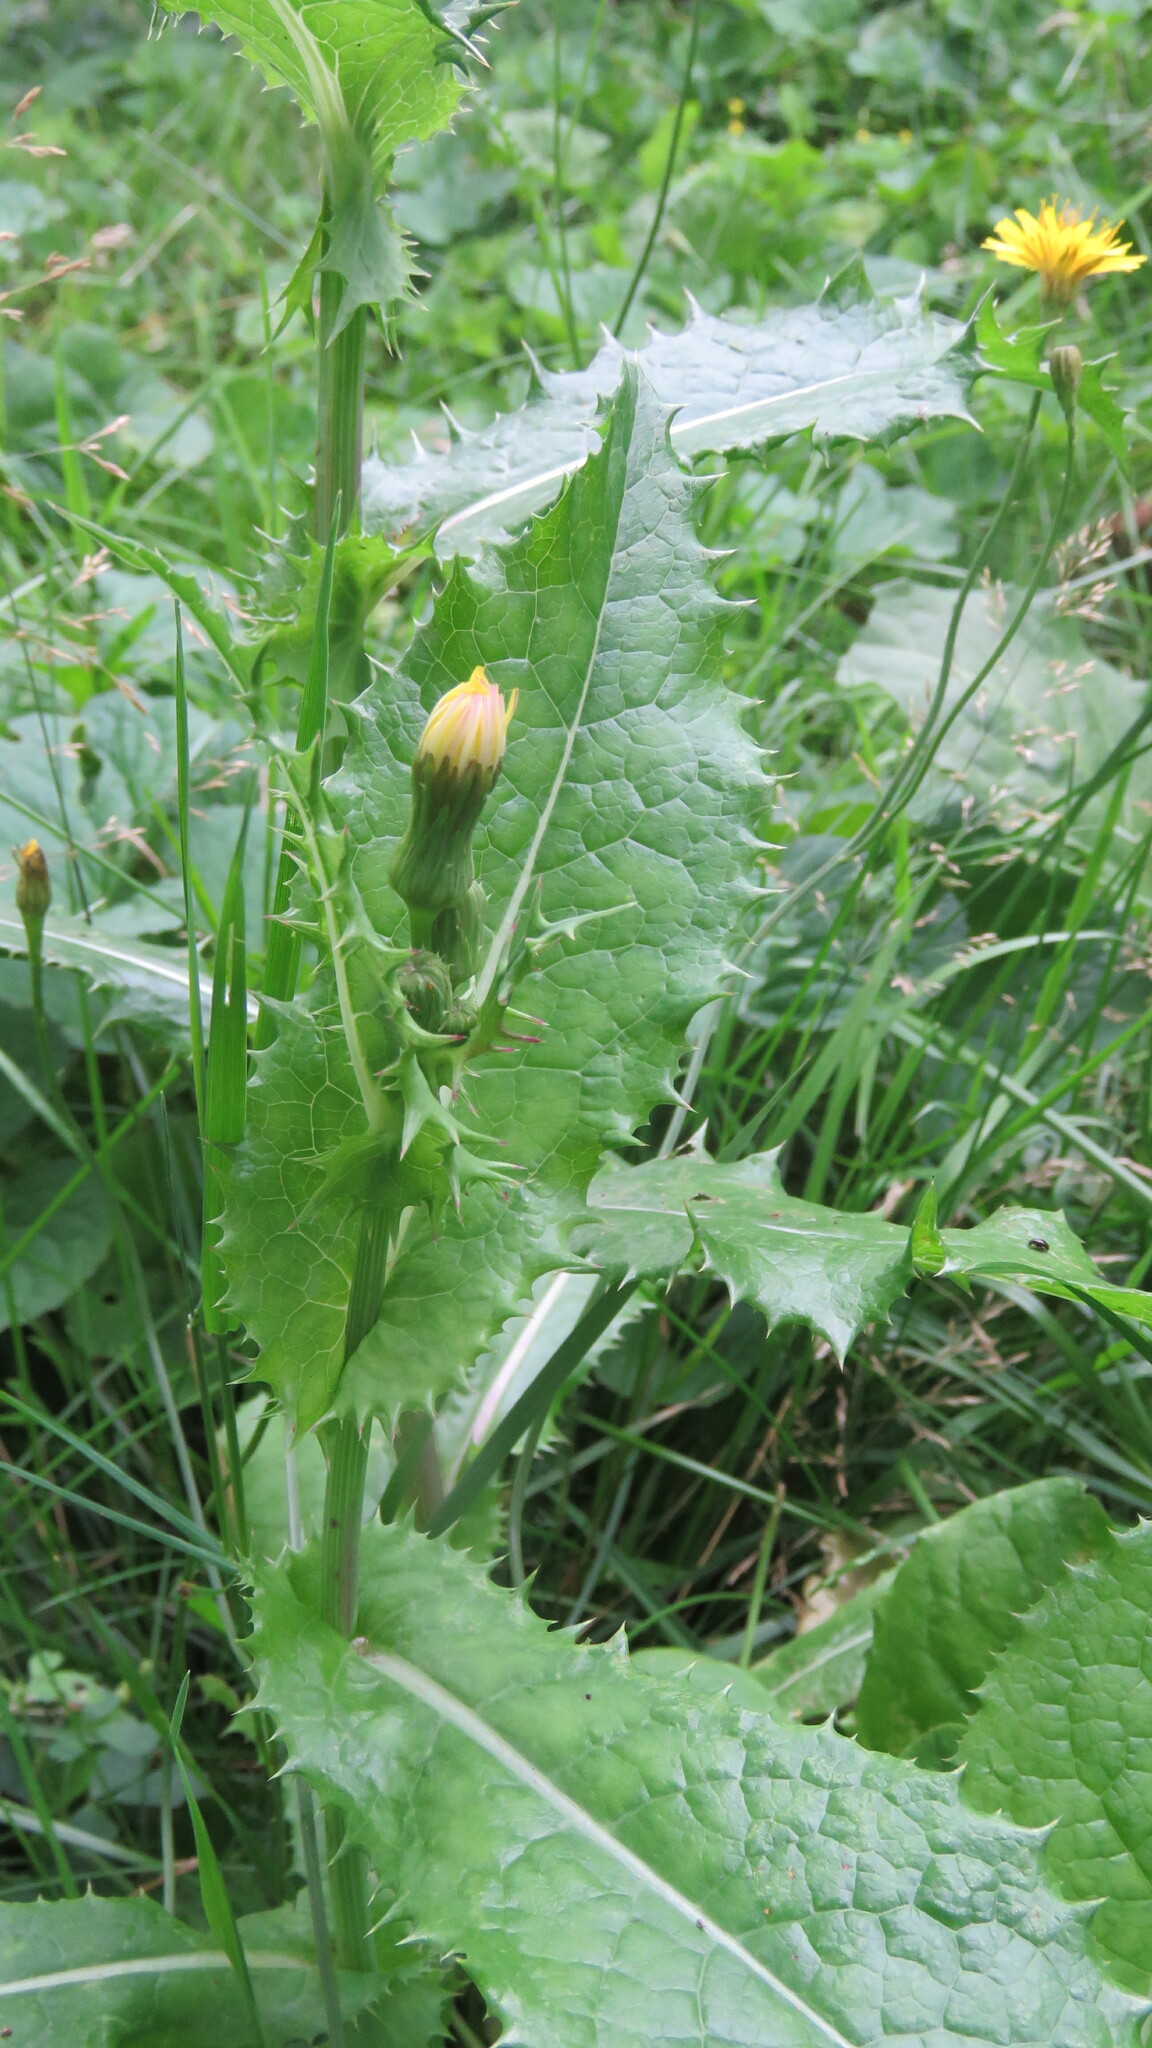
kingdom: Plantae
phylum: Tracheophyta
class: Magnoliopsida
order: Asterales
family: Asteraceae
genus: Sonchus
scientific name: Sonchus asper
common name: Prickly sow-thistle
